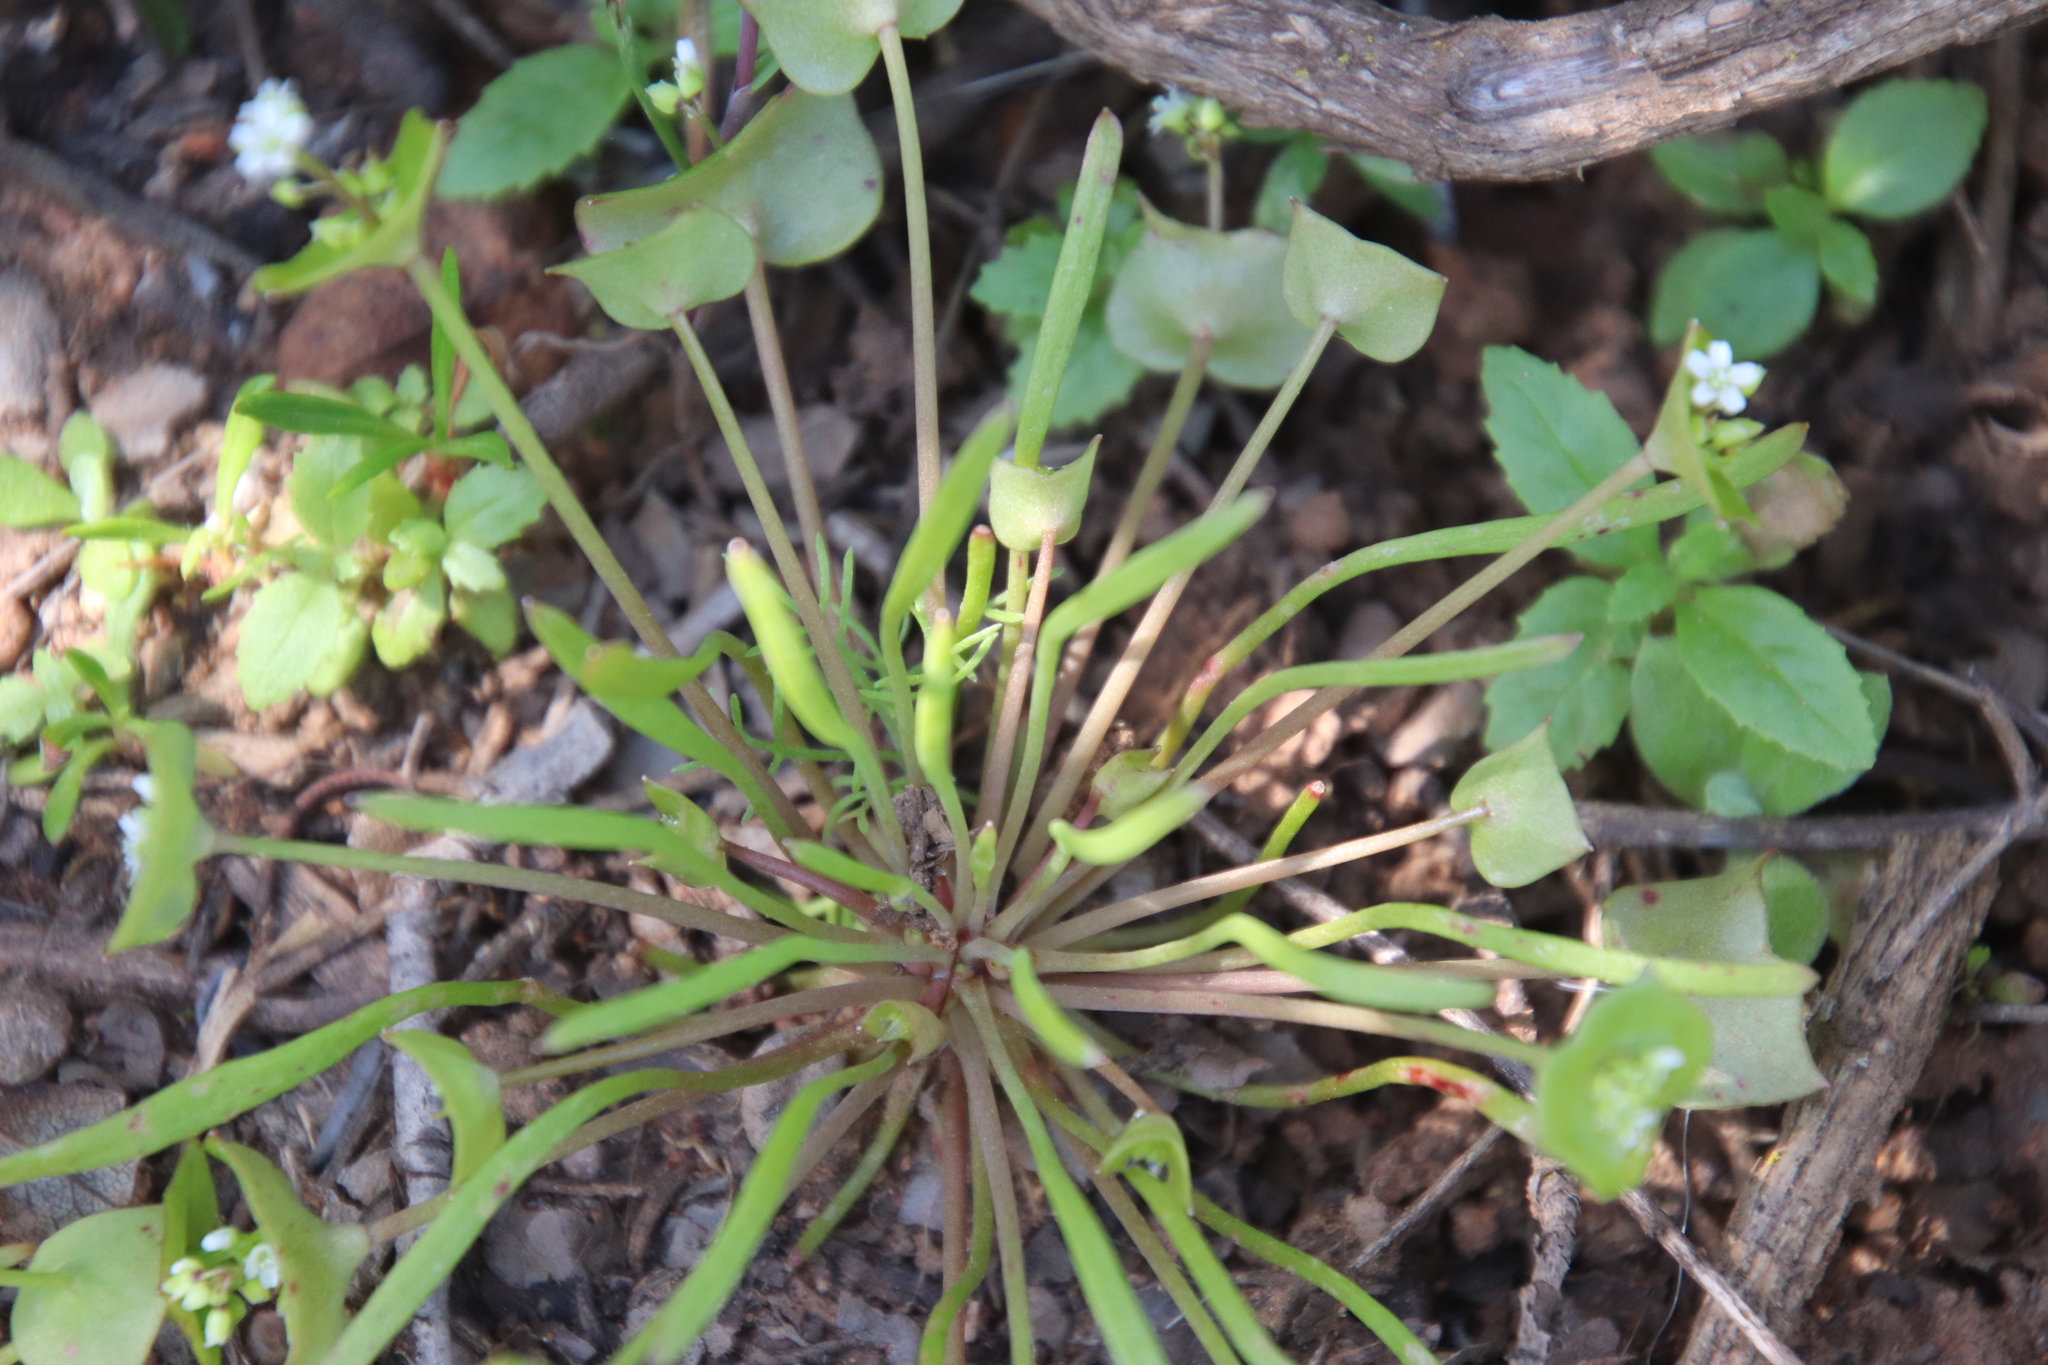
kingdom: Plantae
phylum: Tracheophyta
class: Magnoliopsida
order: Caryophyllales
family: Montiaceae
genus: Claytonia
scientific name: Claytonia parviflora
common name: Indian-lettuce
